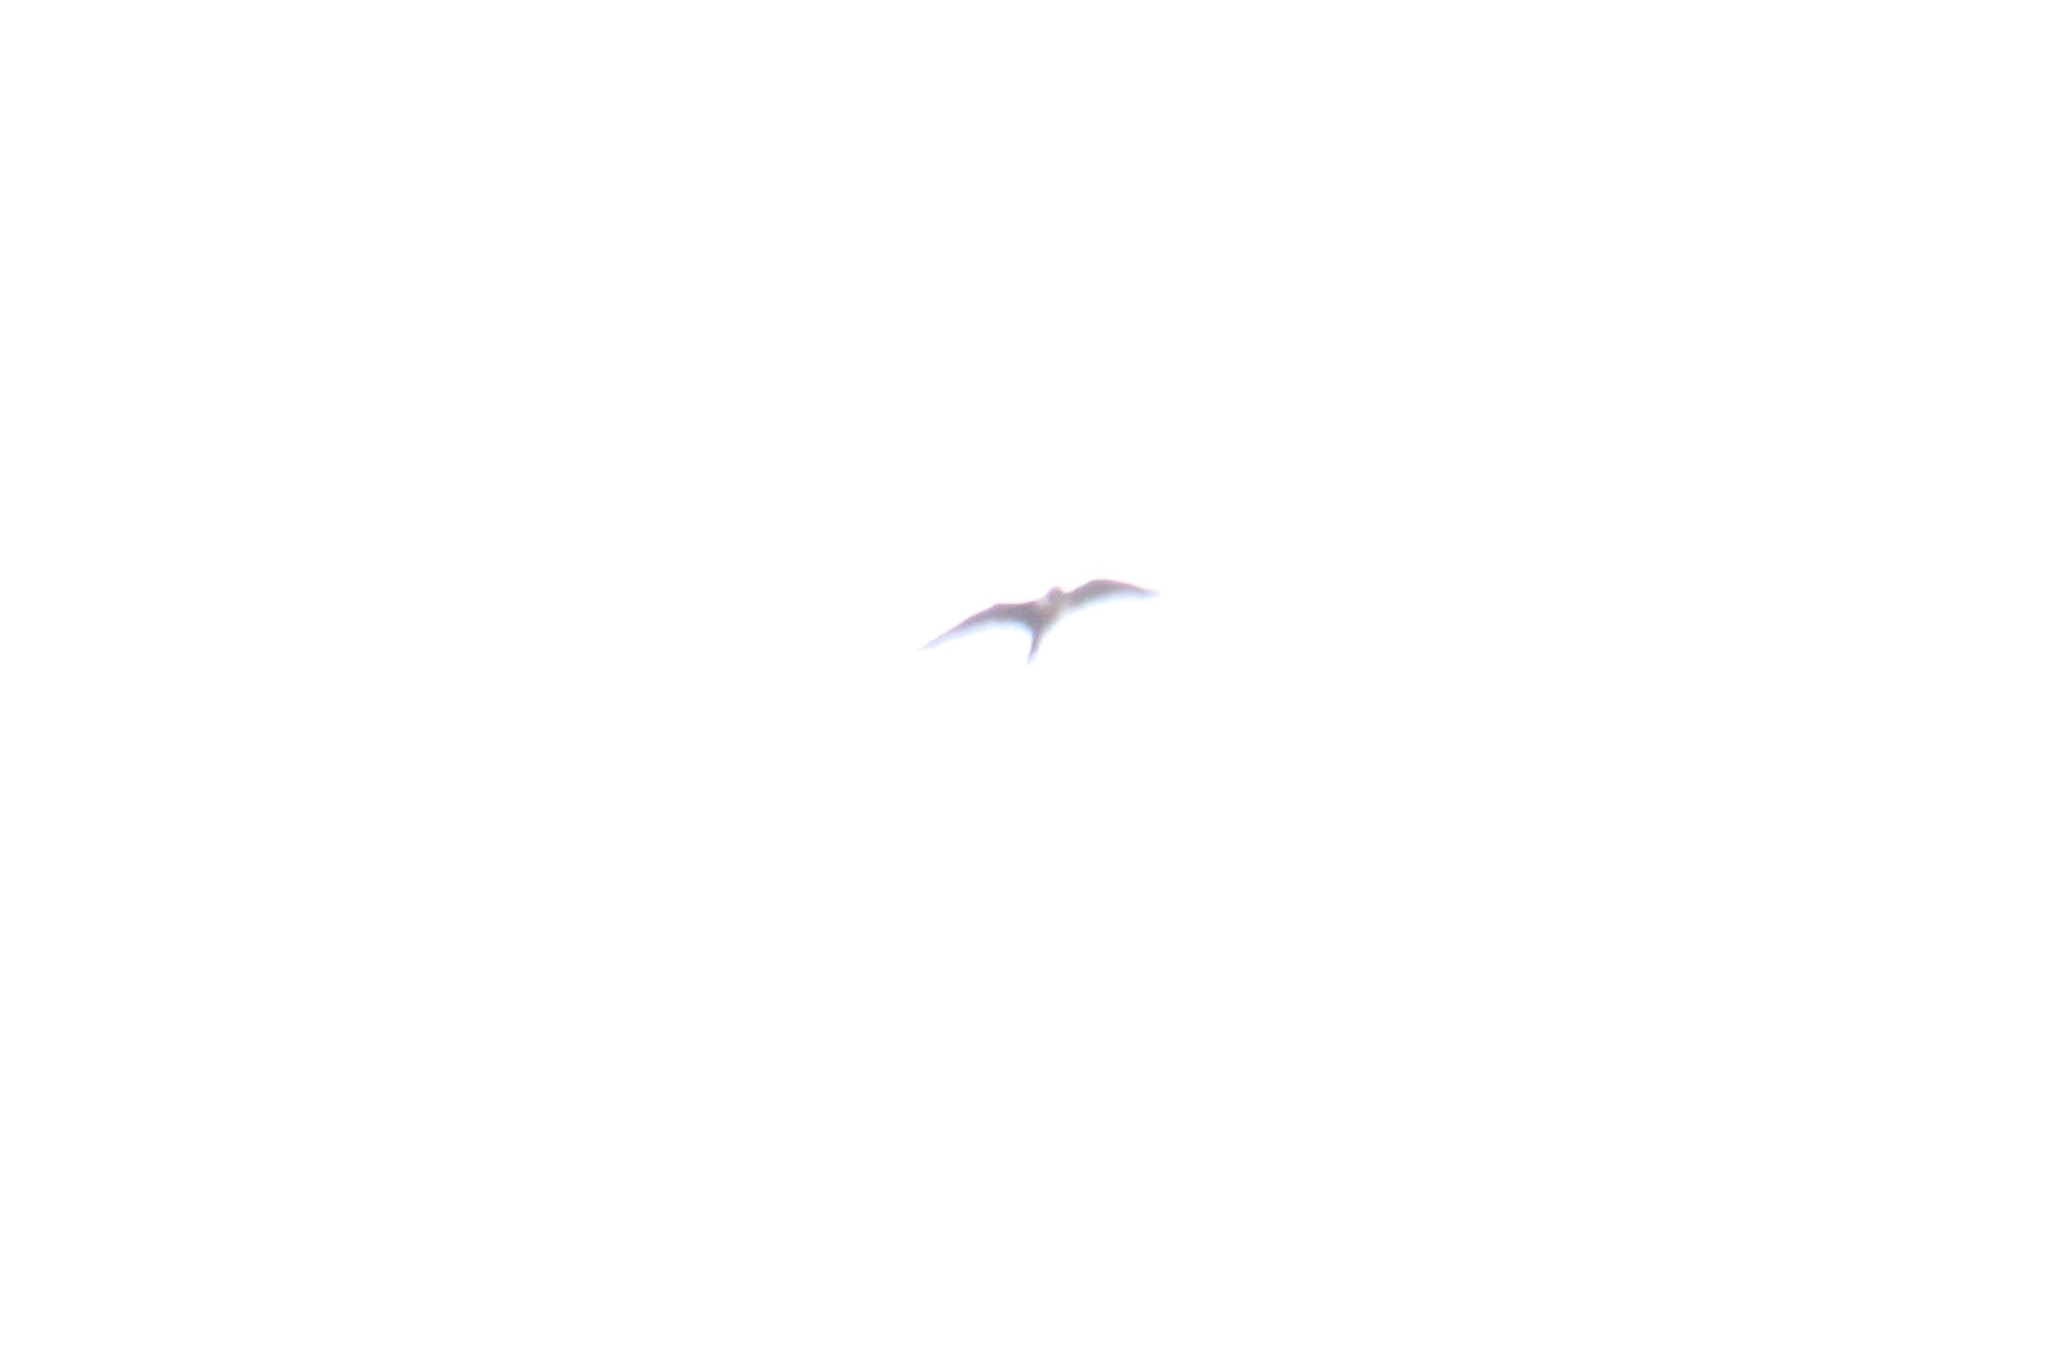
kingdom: Animalia
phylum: Chordata
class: Aves
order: Falconiformes
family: Falconidae
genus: Falco
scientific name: Falco peregrinus
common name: Peregrine falcon
